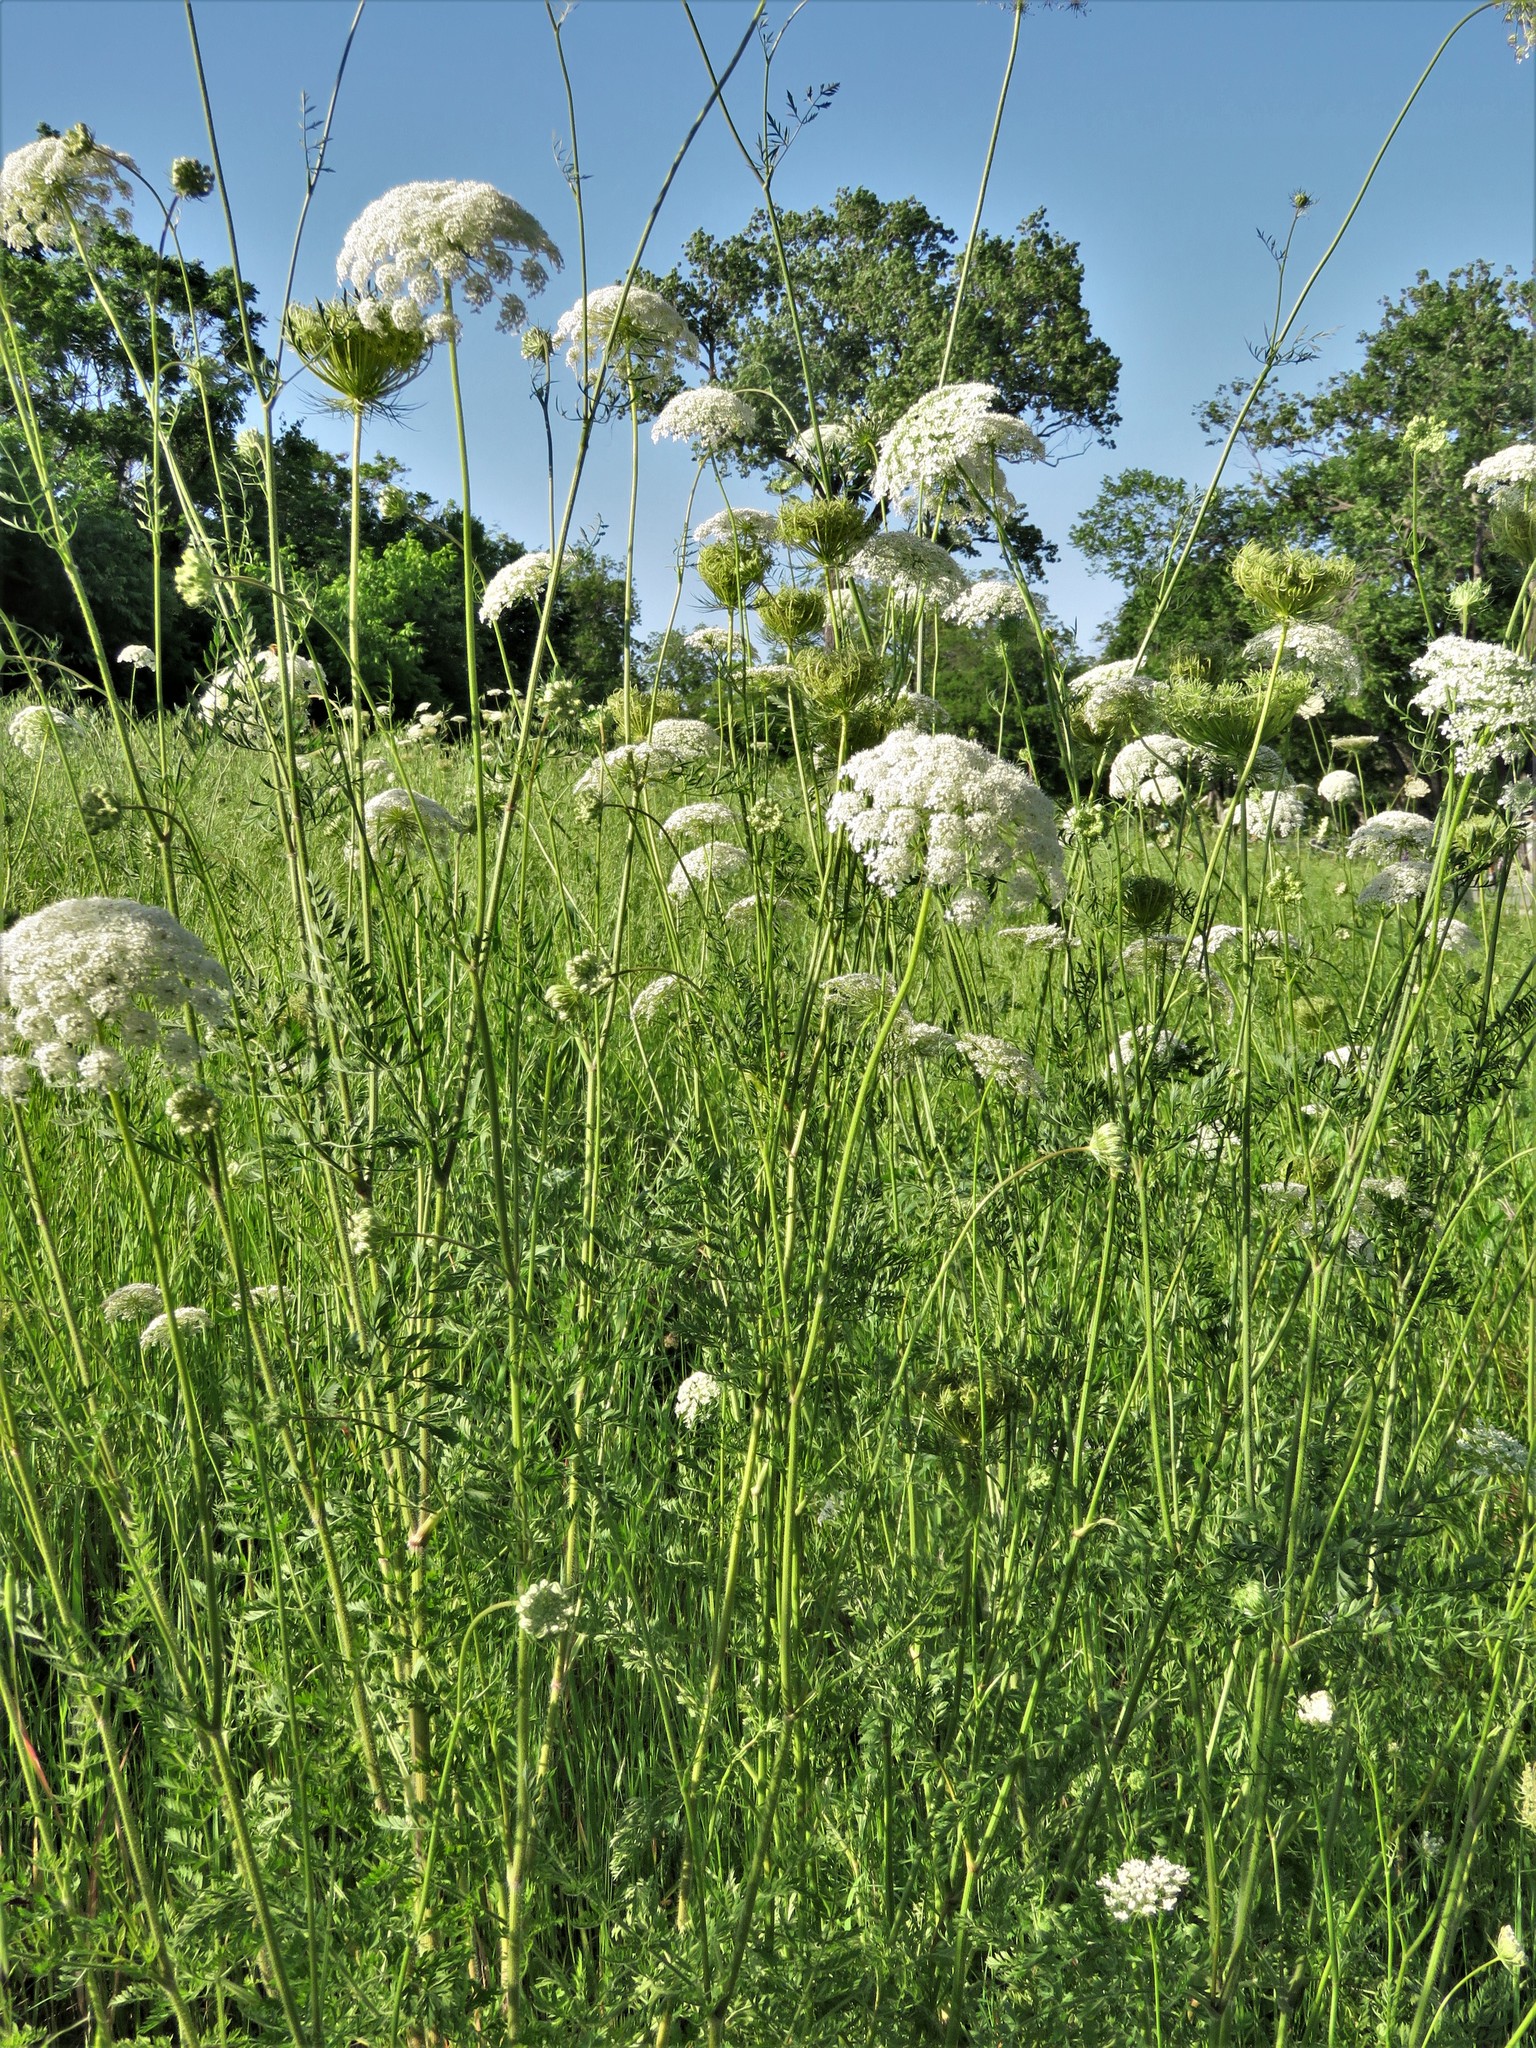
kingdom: Plantae
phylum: Tracheophyta
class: Magnoliopsida
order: Apiales
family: Apiaceae
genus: Daucus
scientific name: Daucus carota
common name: Wild carrot
